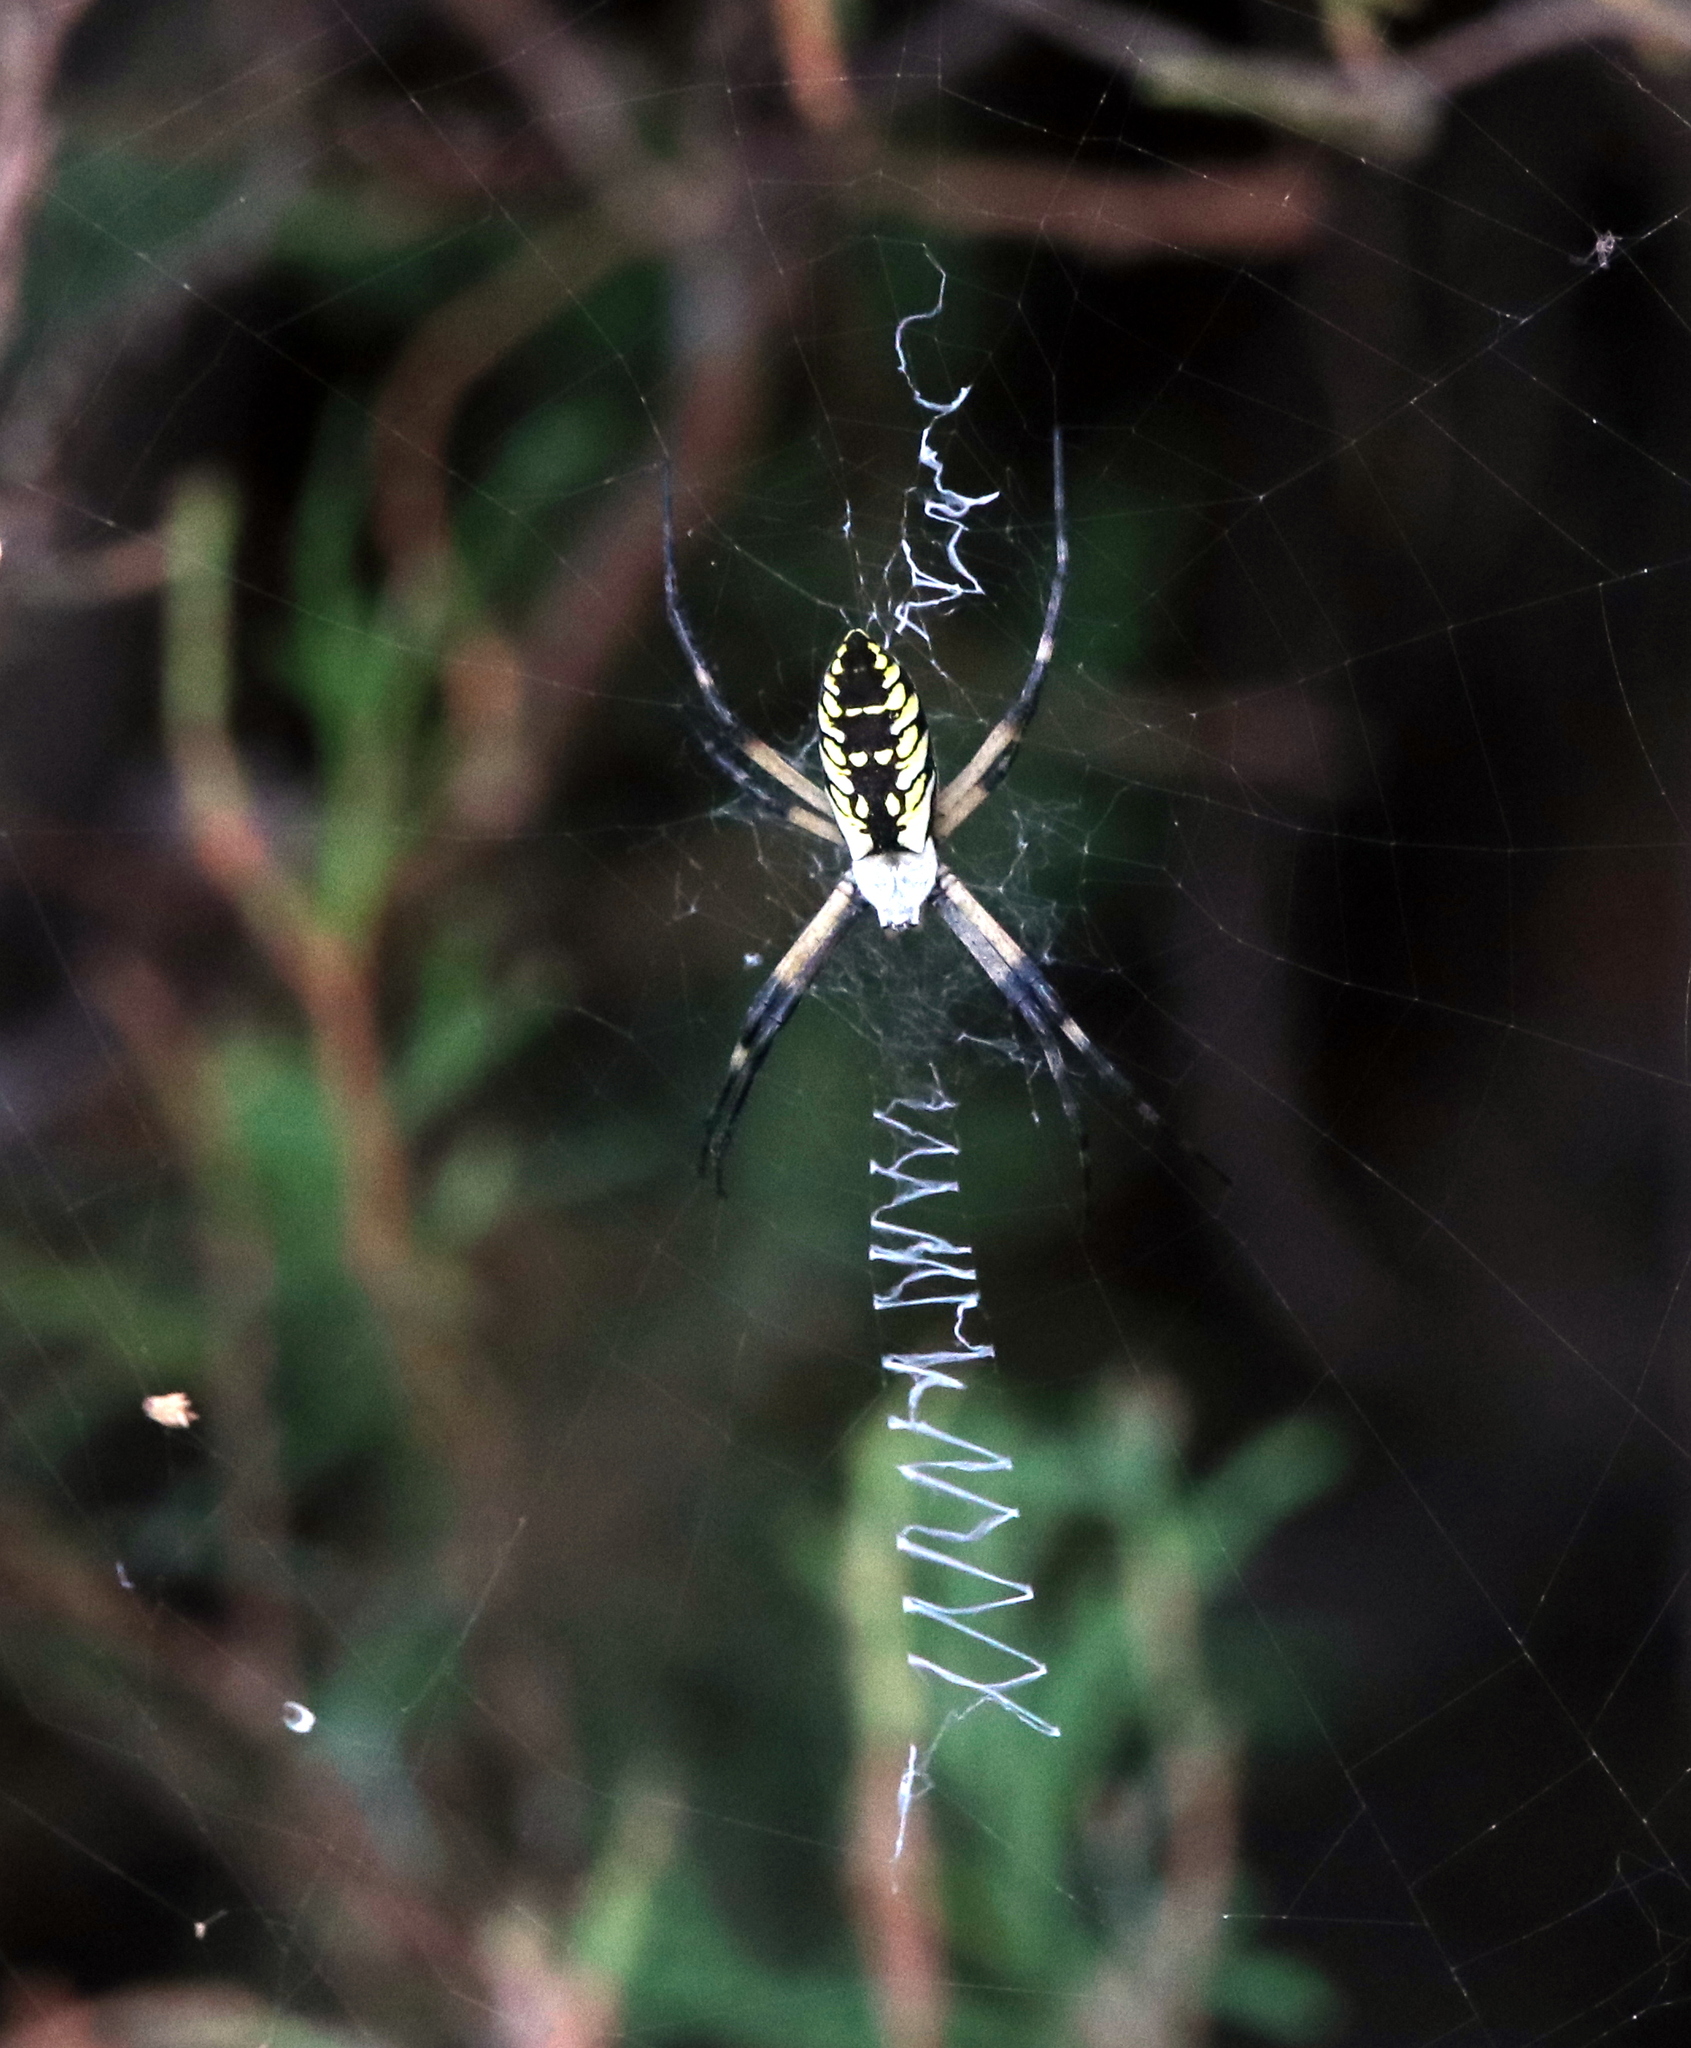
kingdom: Animalia
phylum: Arthropoda
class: Arachnida
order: Araneae
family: Araneidae
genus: Argiope
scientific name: Argiope aurantia
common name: Orb weavers
